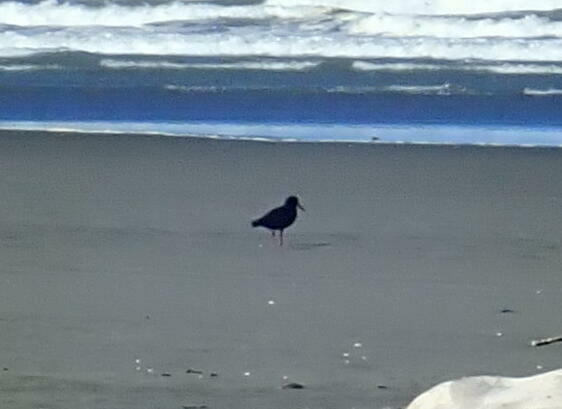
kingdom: Animalia
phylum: Chordata
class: Aves
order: Charadriiformes
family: Haematopodidae
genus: Haematopus
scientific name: Haematopus unicolor
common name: Variable oystercatcher
